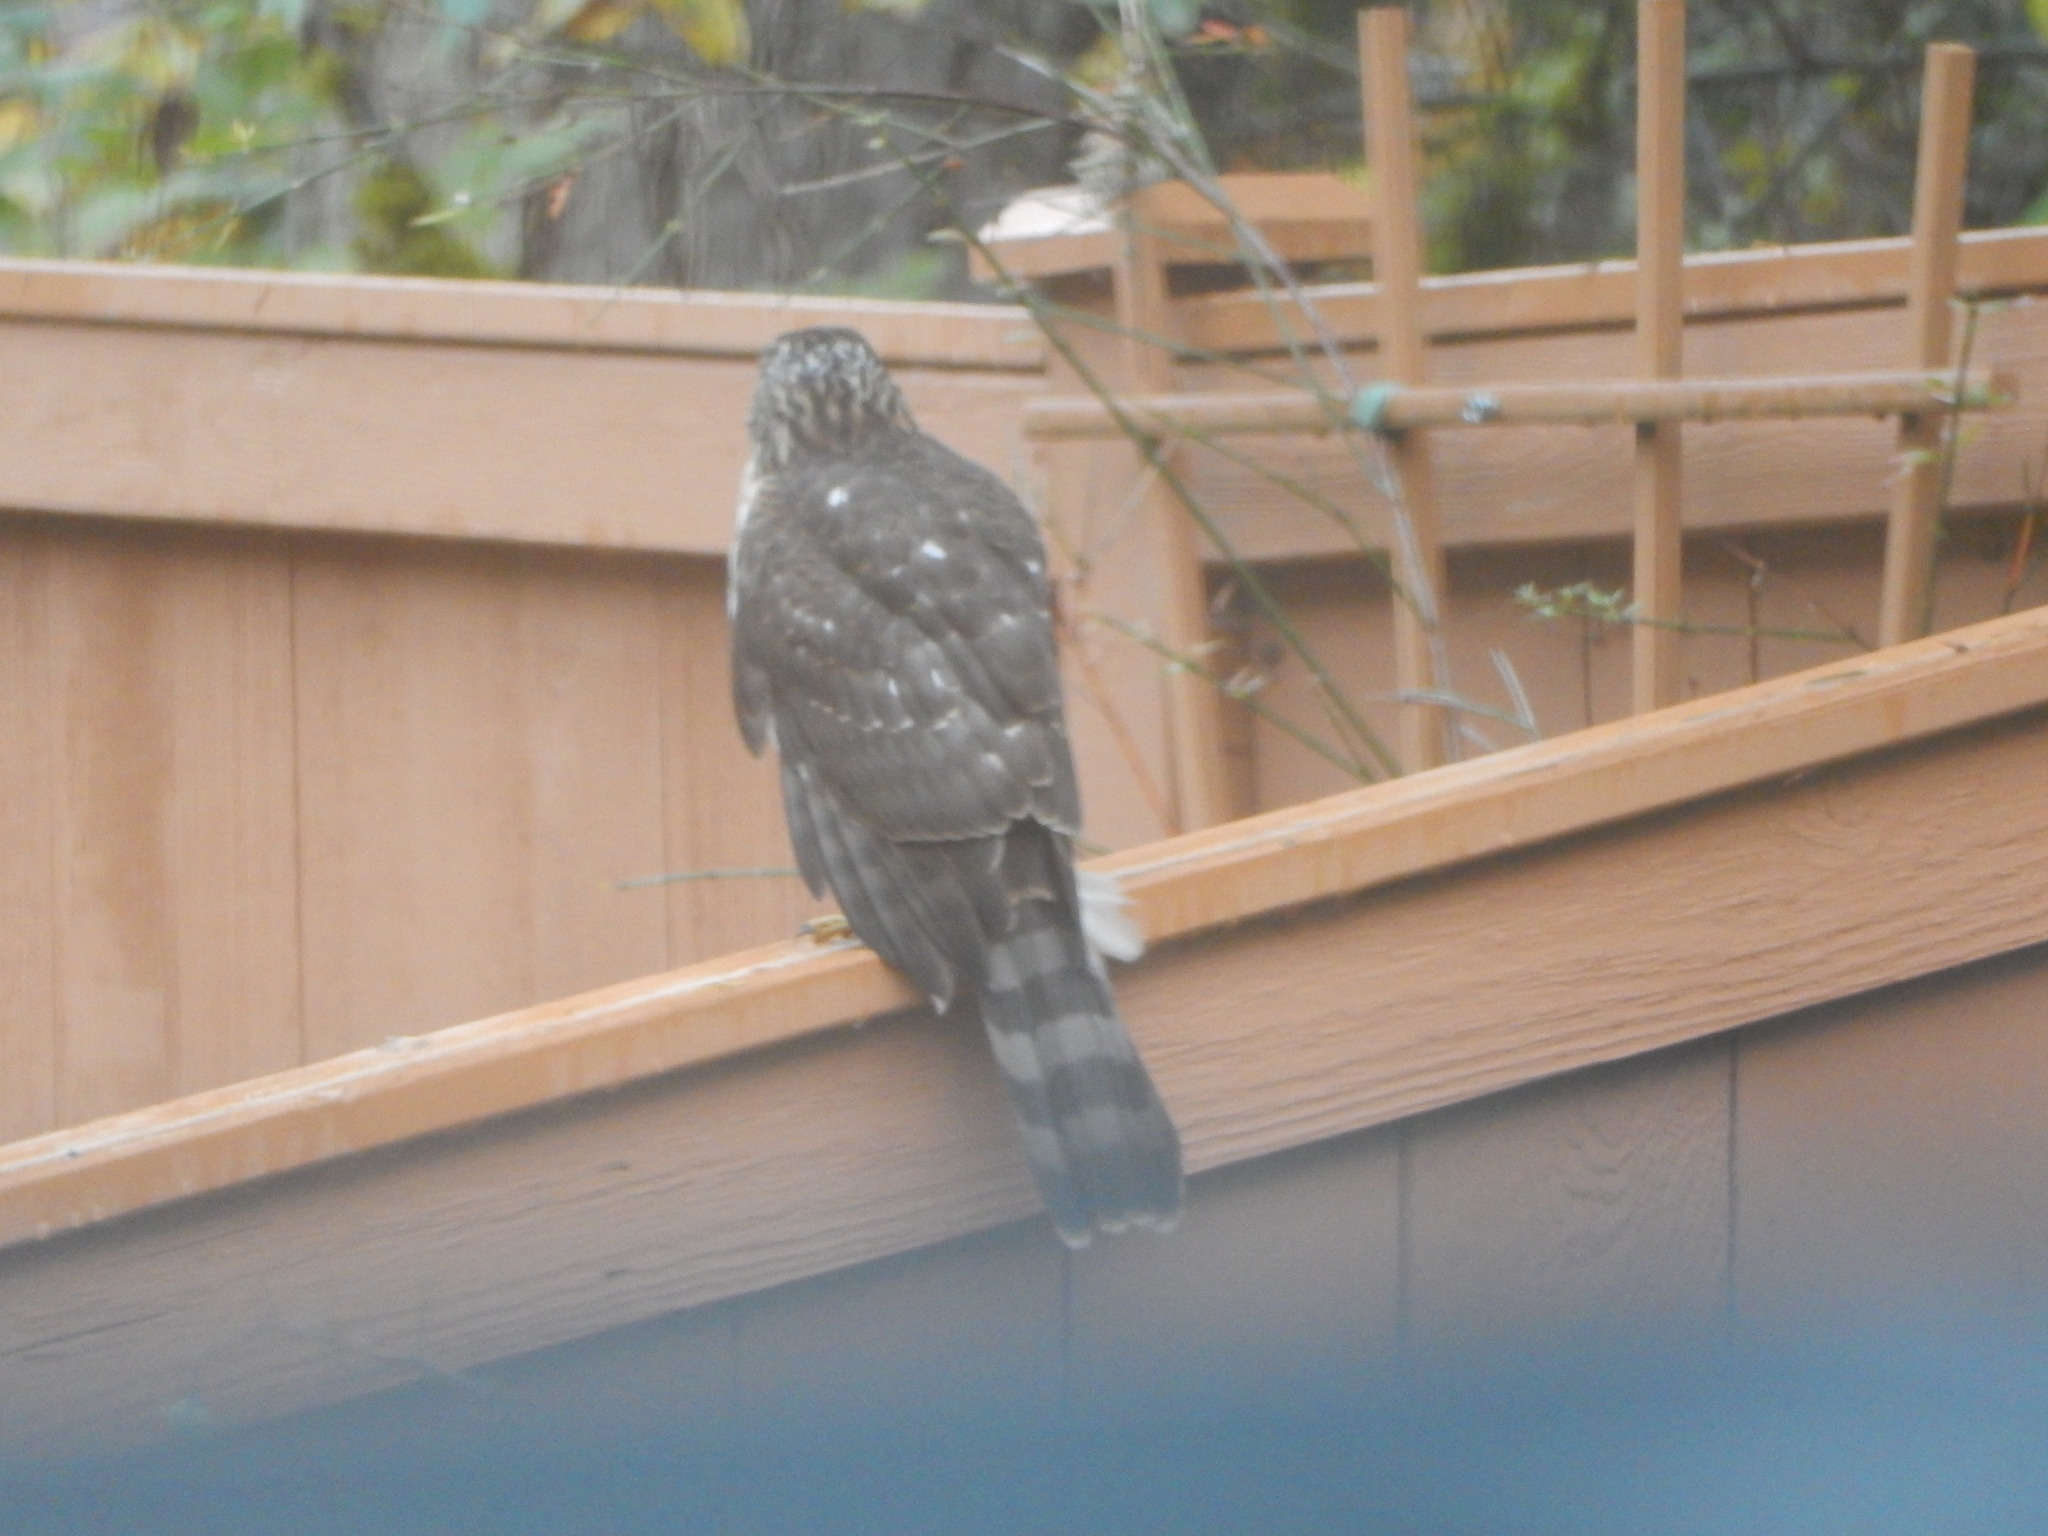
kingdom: Animalia
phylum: Chordata
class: Aves
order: Accipitriformes
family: Accipitridae
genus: Accipiter
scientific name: Accipiter cooperii
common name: Cooper's hawk
